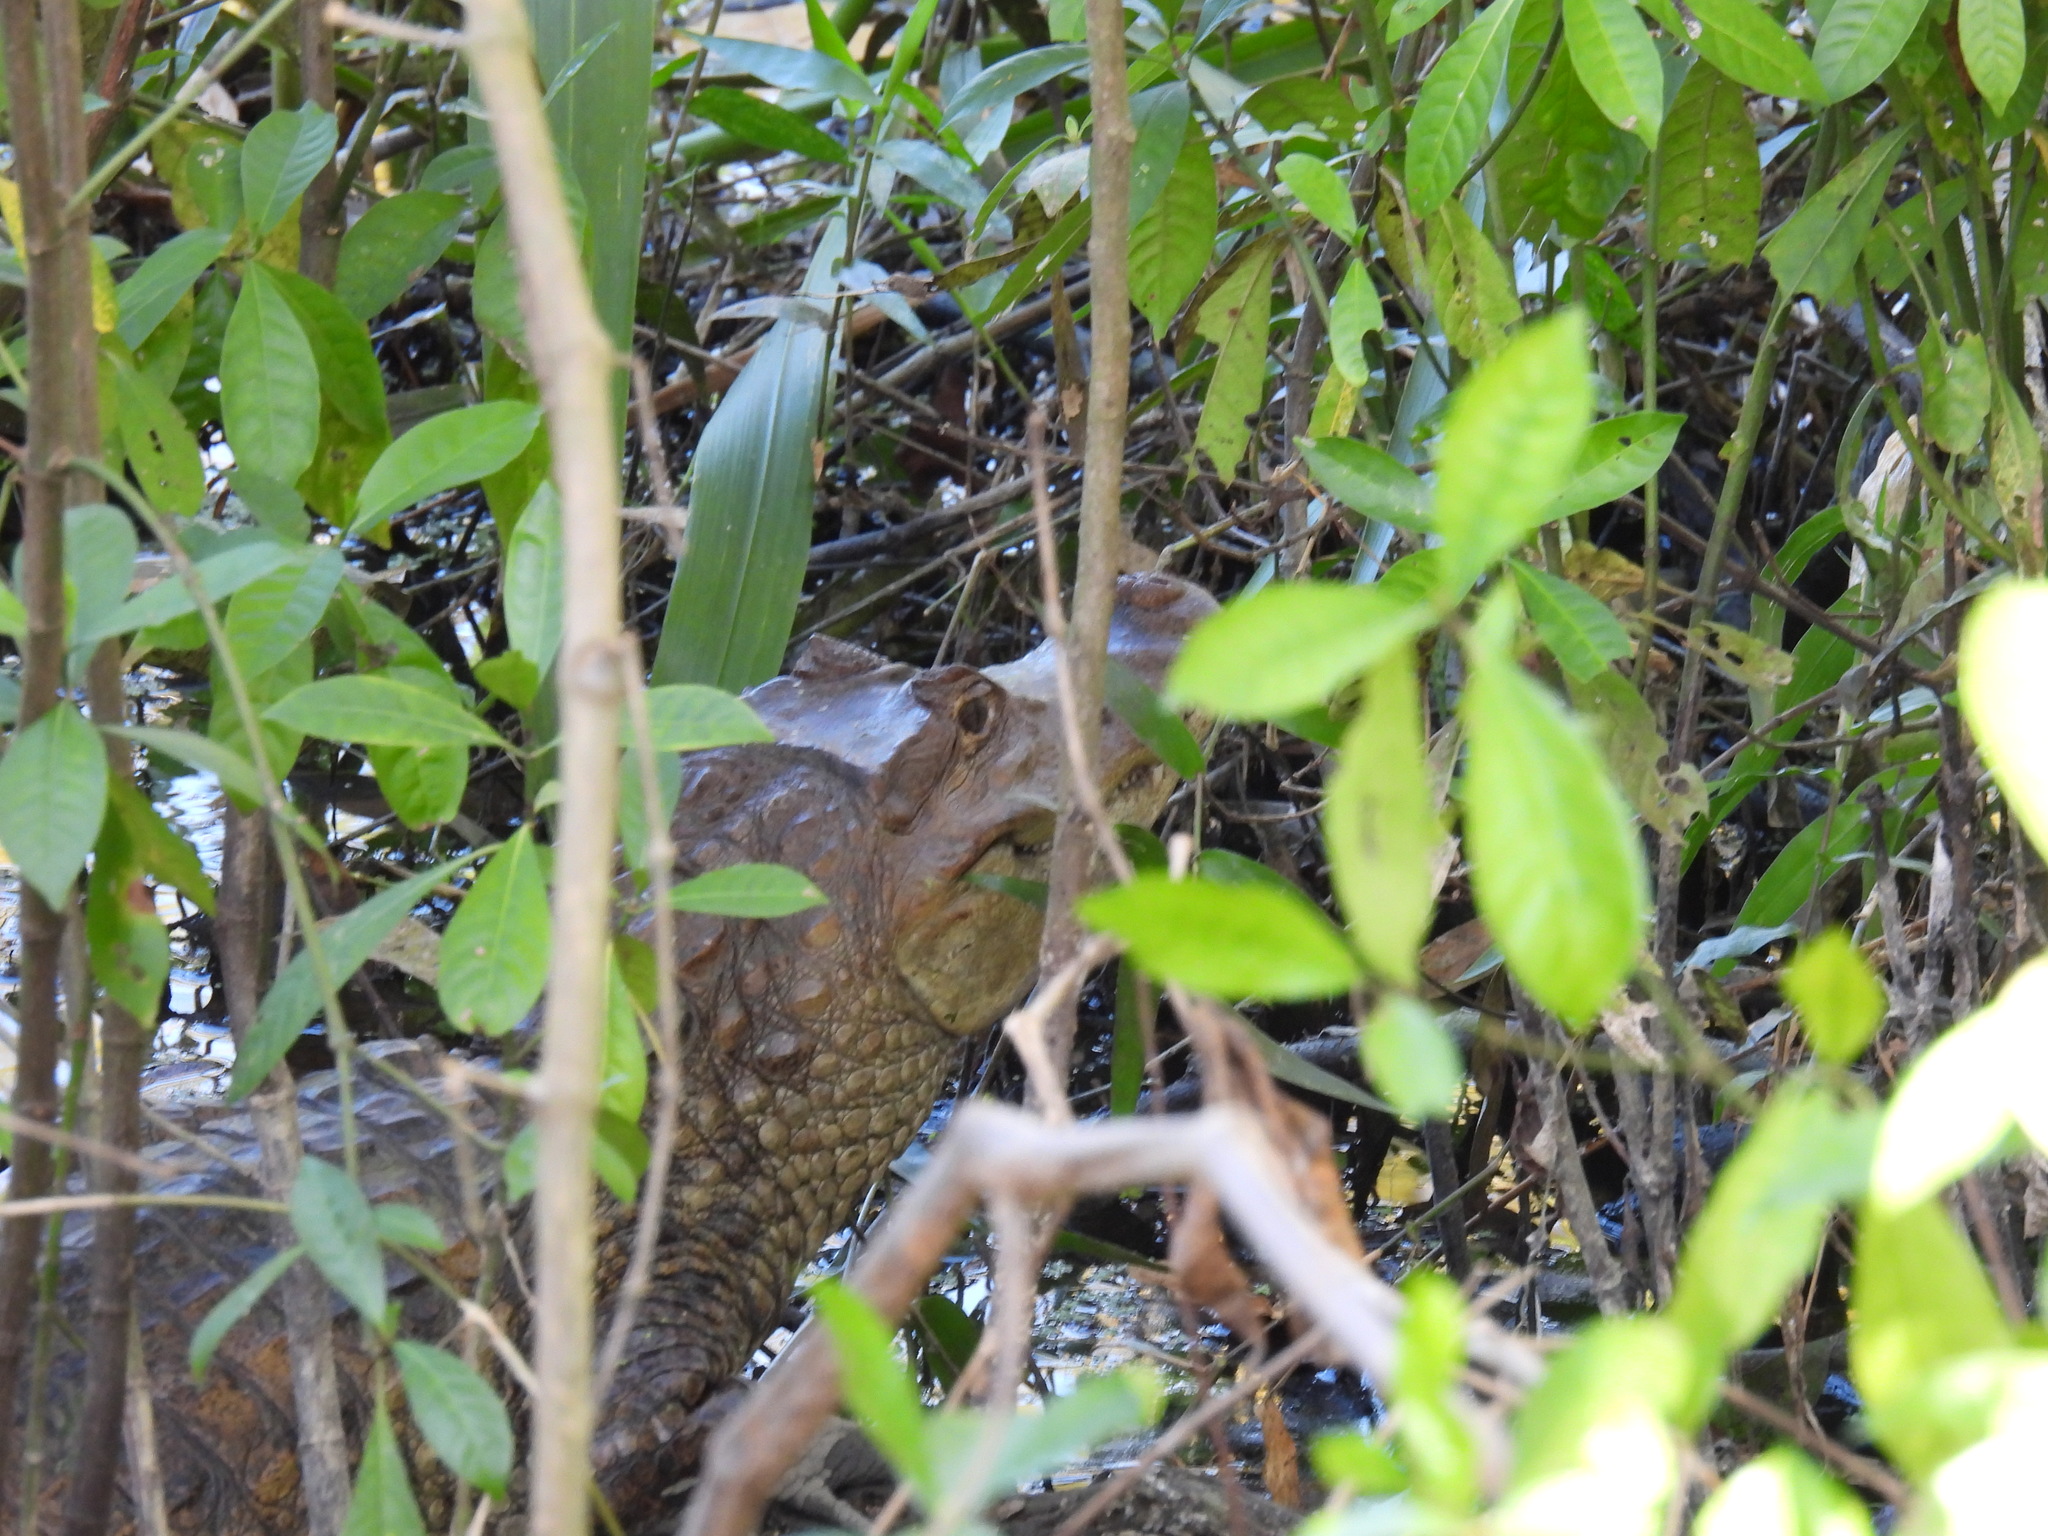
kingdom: Animalia
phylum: Chordata
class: Crocodylia
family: Alligatoridae
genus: Caiman
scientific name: Caiman crocodilus
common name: Common caiman
